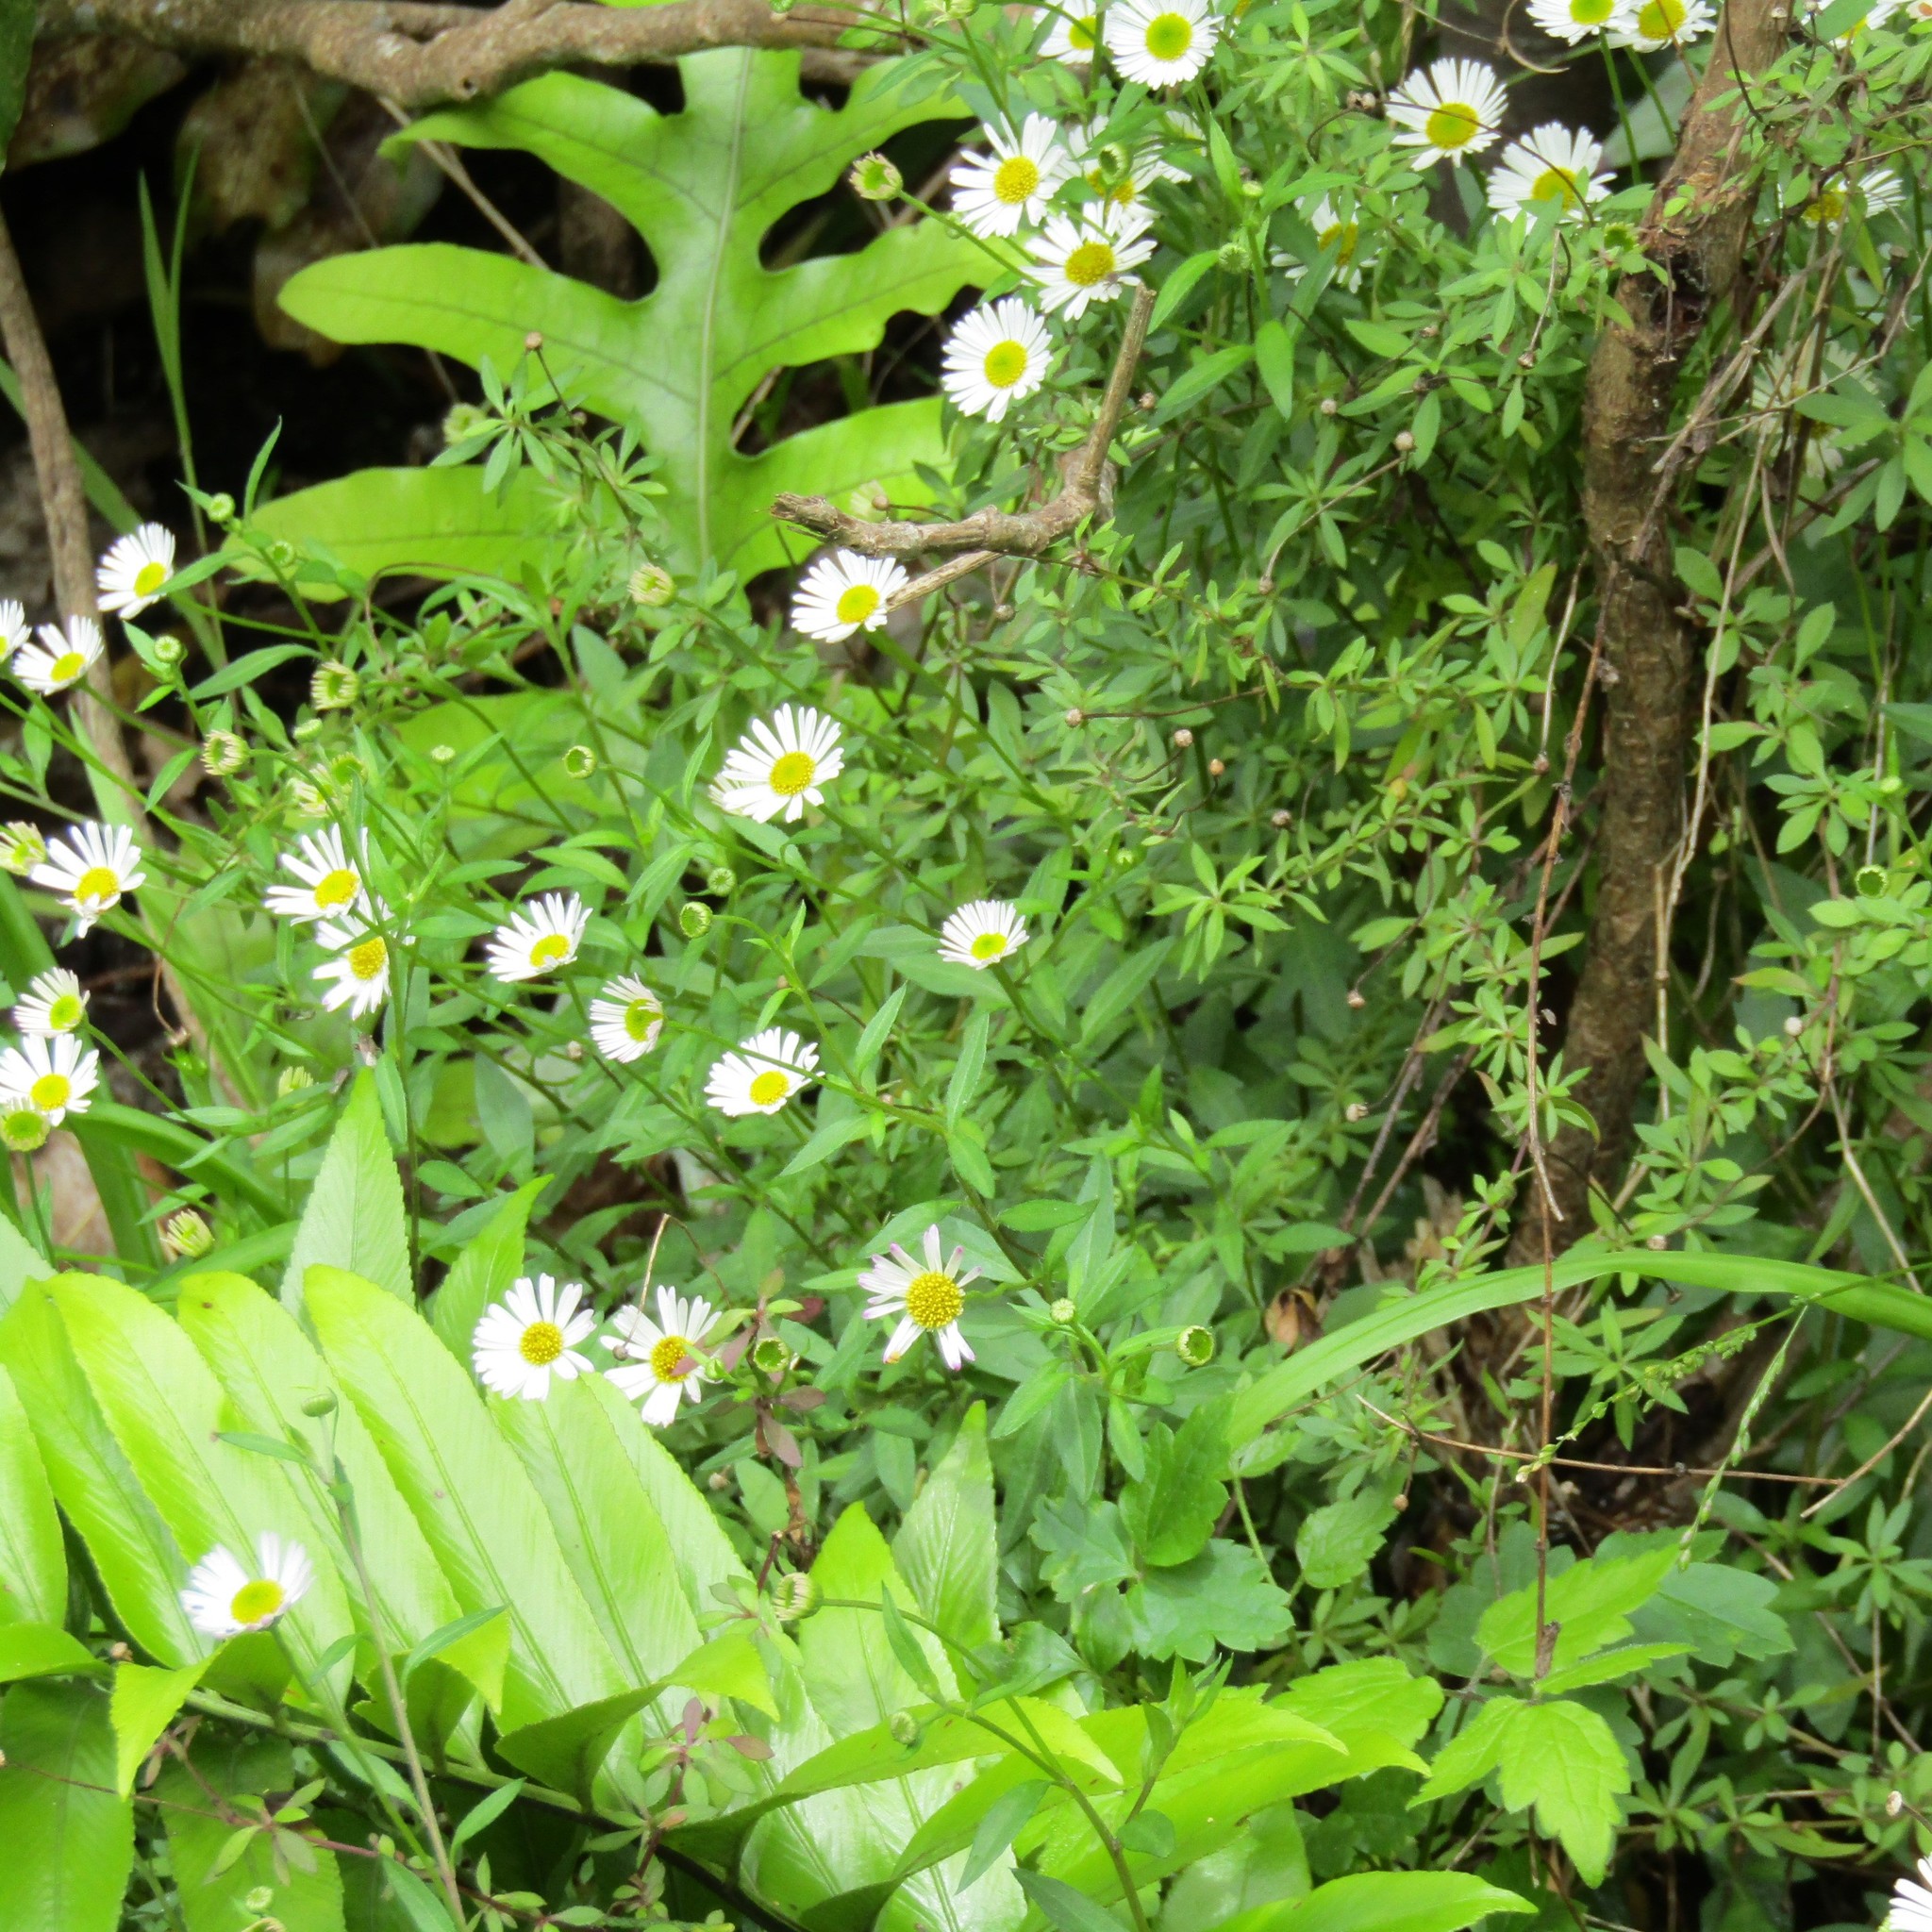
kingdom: Plantae
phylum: Tracheophyta
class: Magnoliopsida
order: Asterales
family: Asteraceae
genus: Erigeron
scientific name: Erigeron karvinskianus
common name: Mexican fleabane
